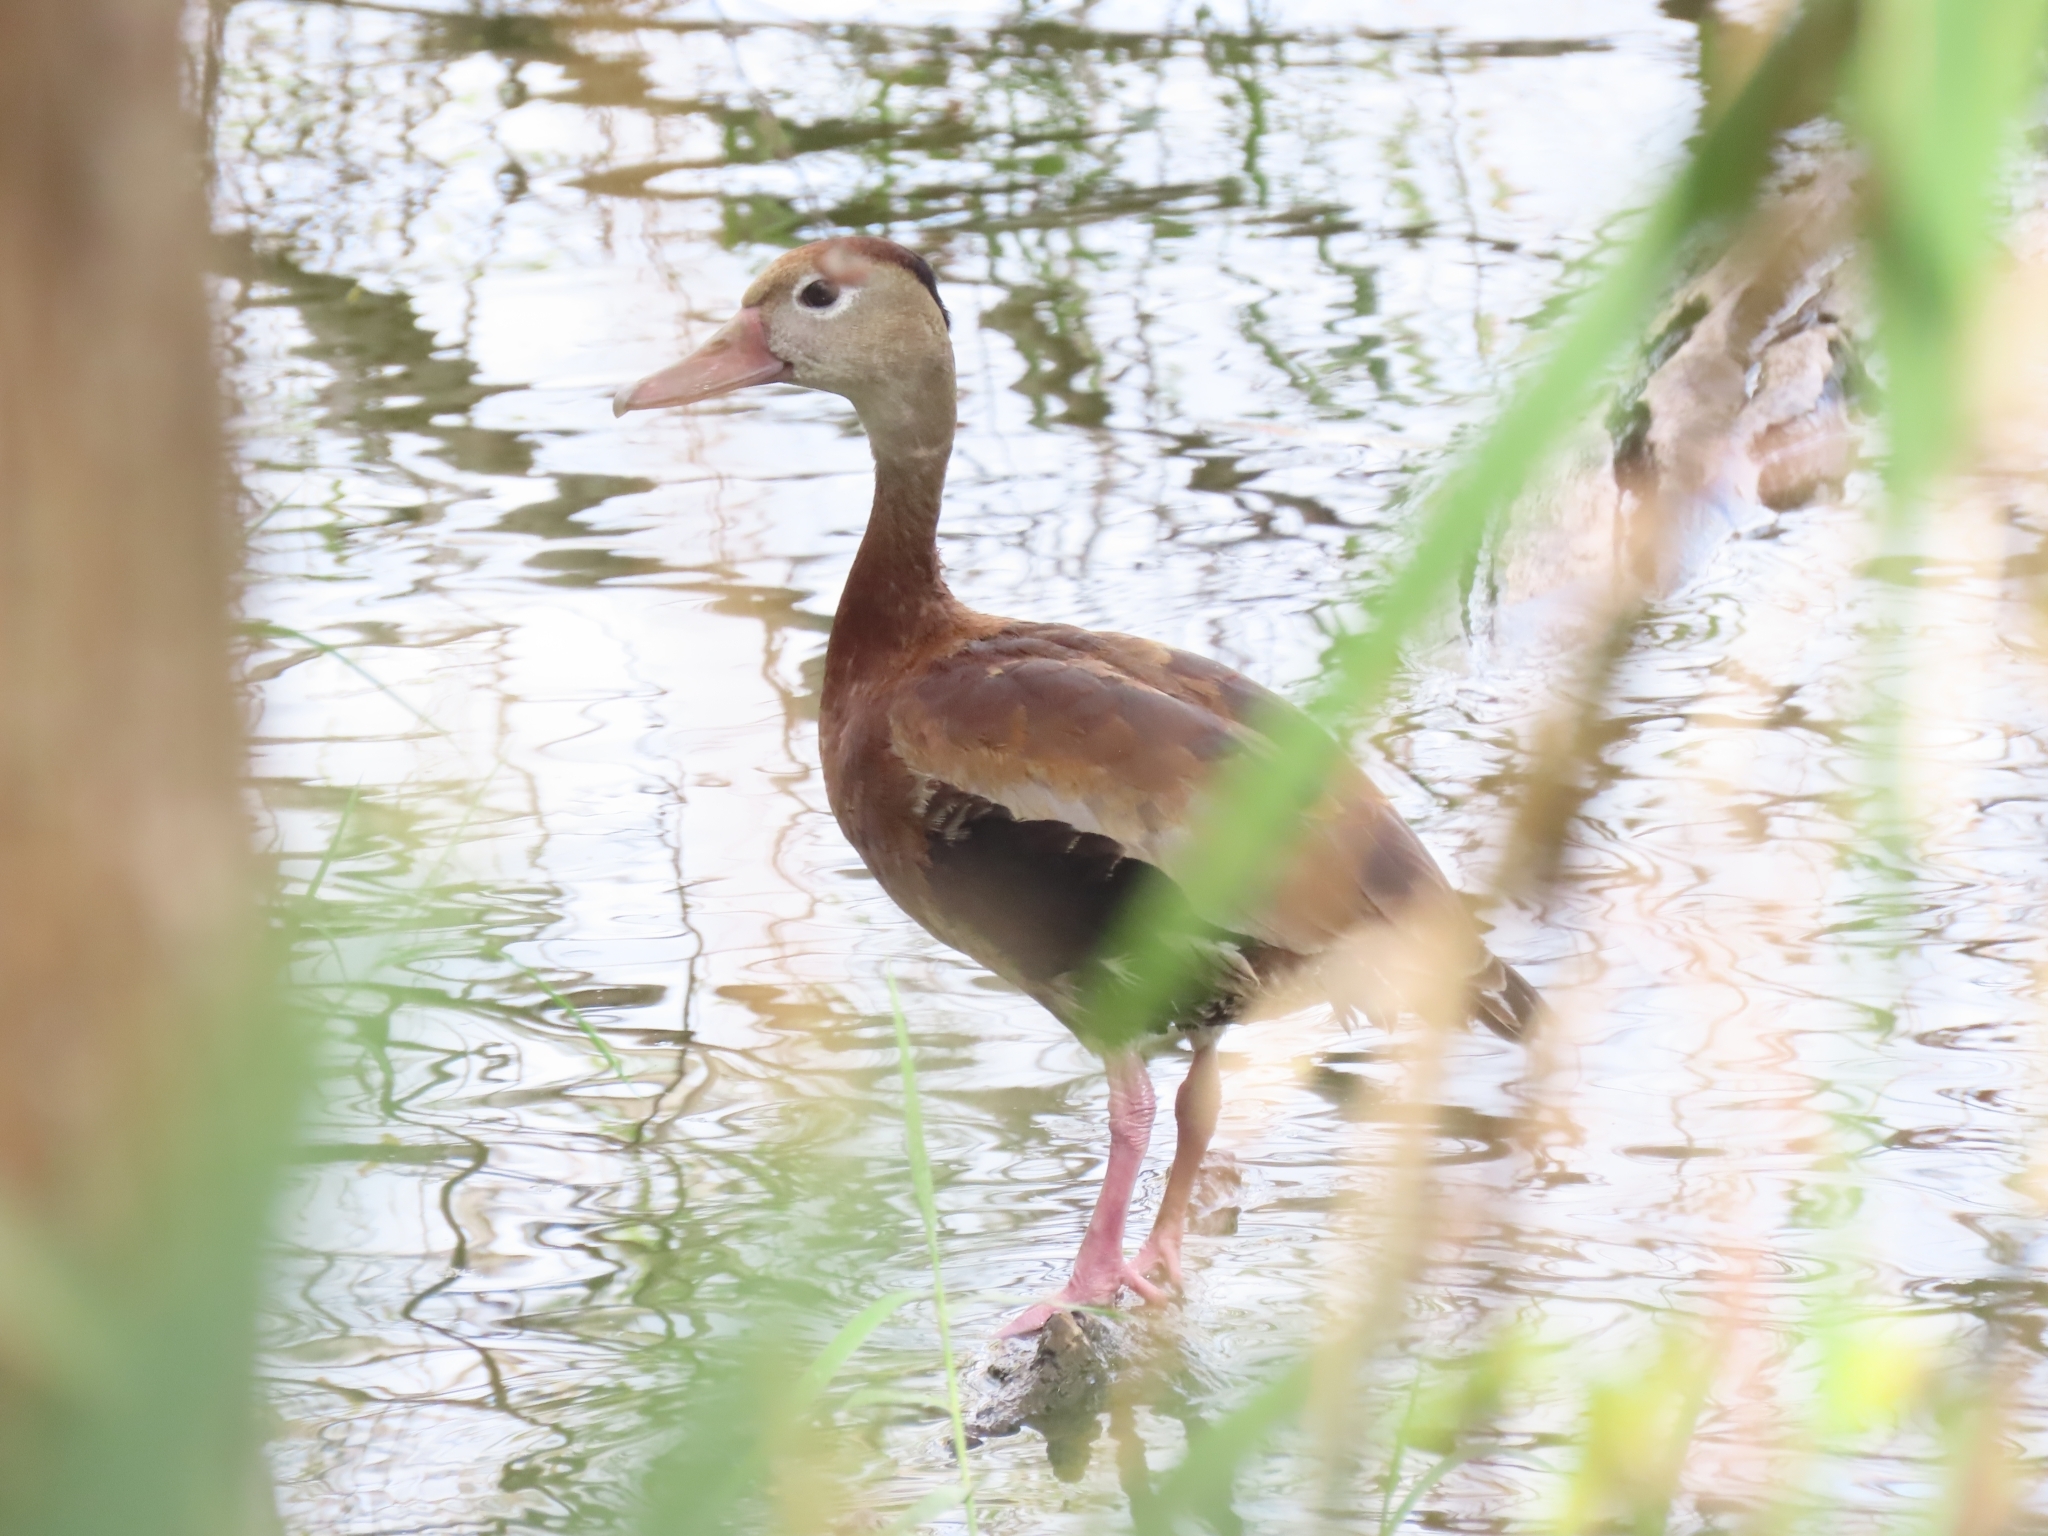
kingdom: Animalia
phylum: Chordata
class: Aves
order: Anseriformes
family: Anatidae
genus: Dendrocygna
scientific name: Dendrocygna autumnalis
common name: Black-bellied whistling duck
